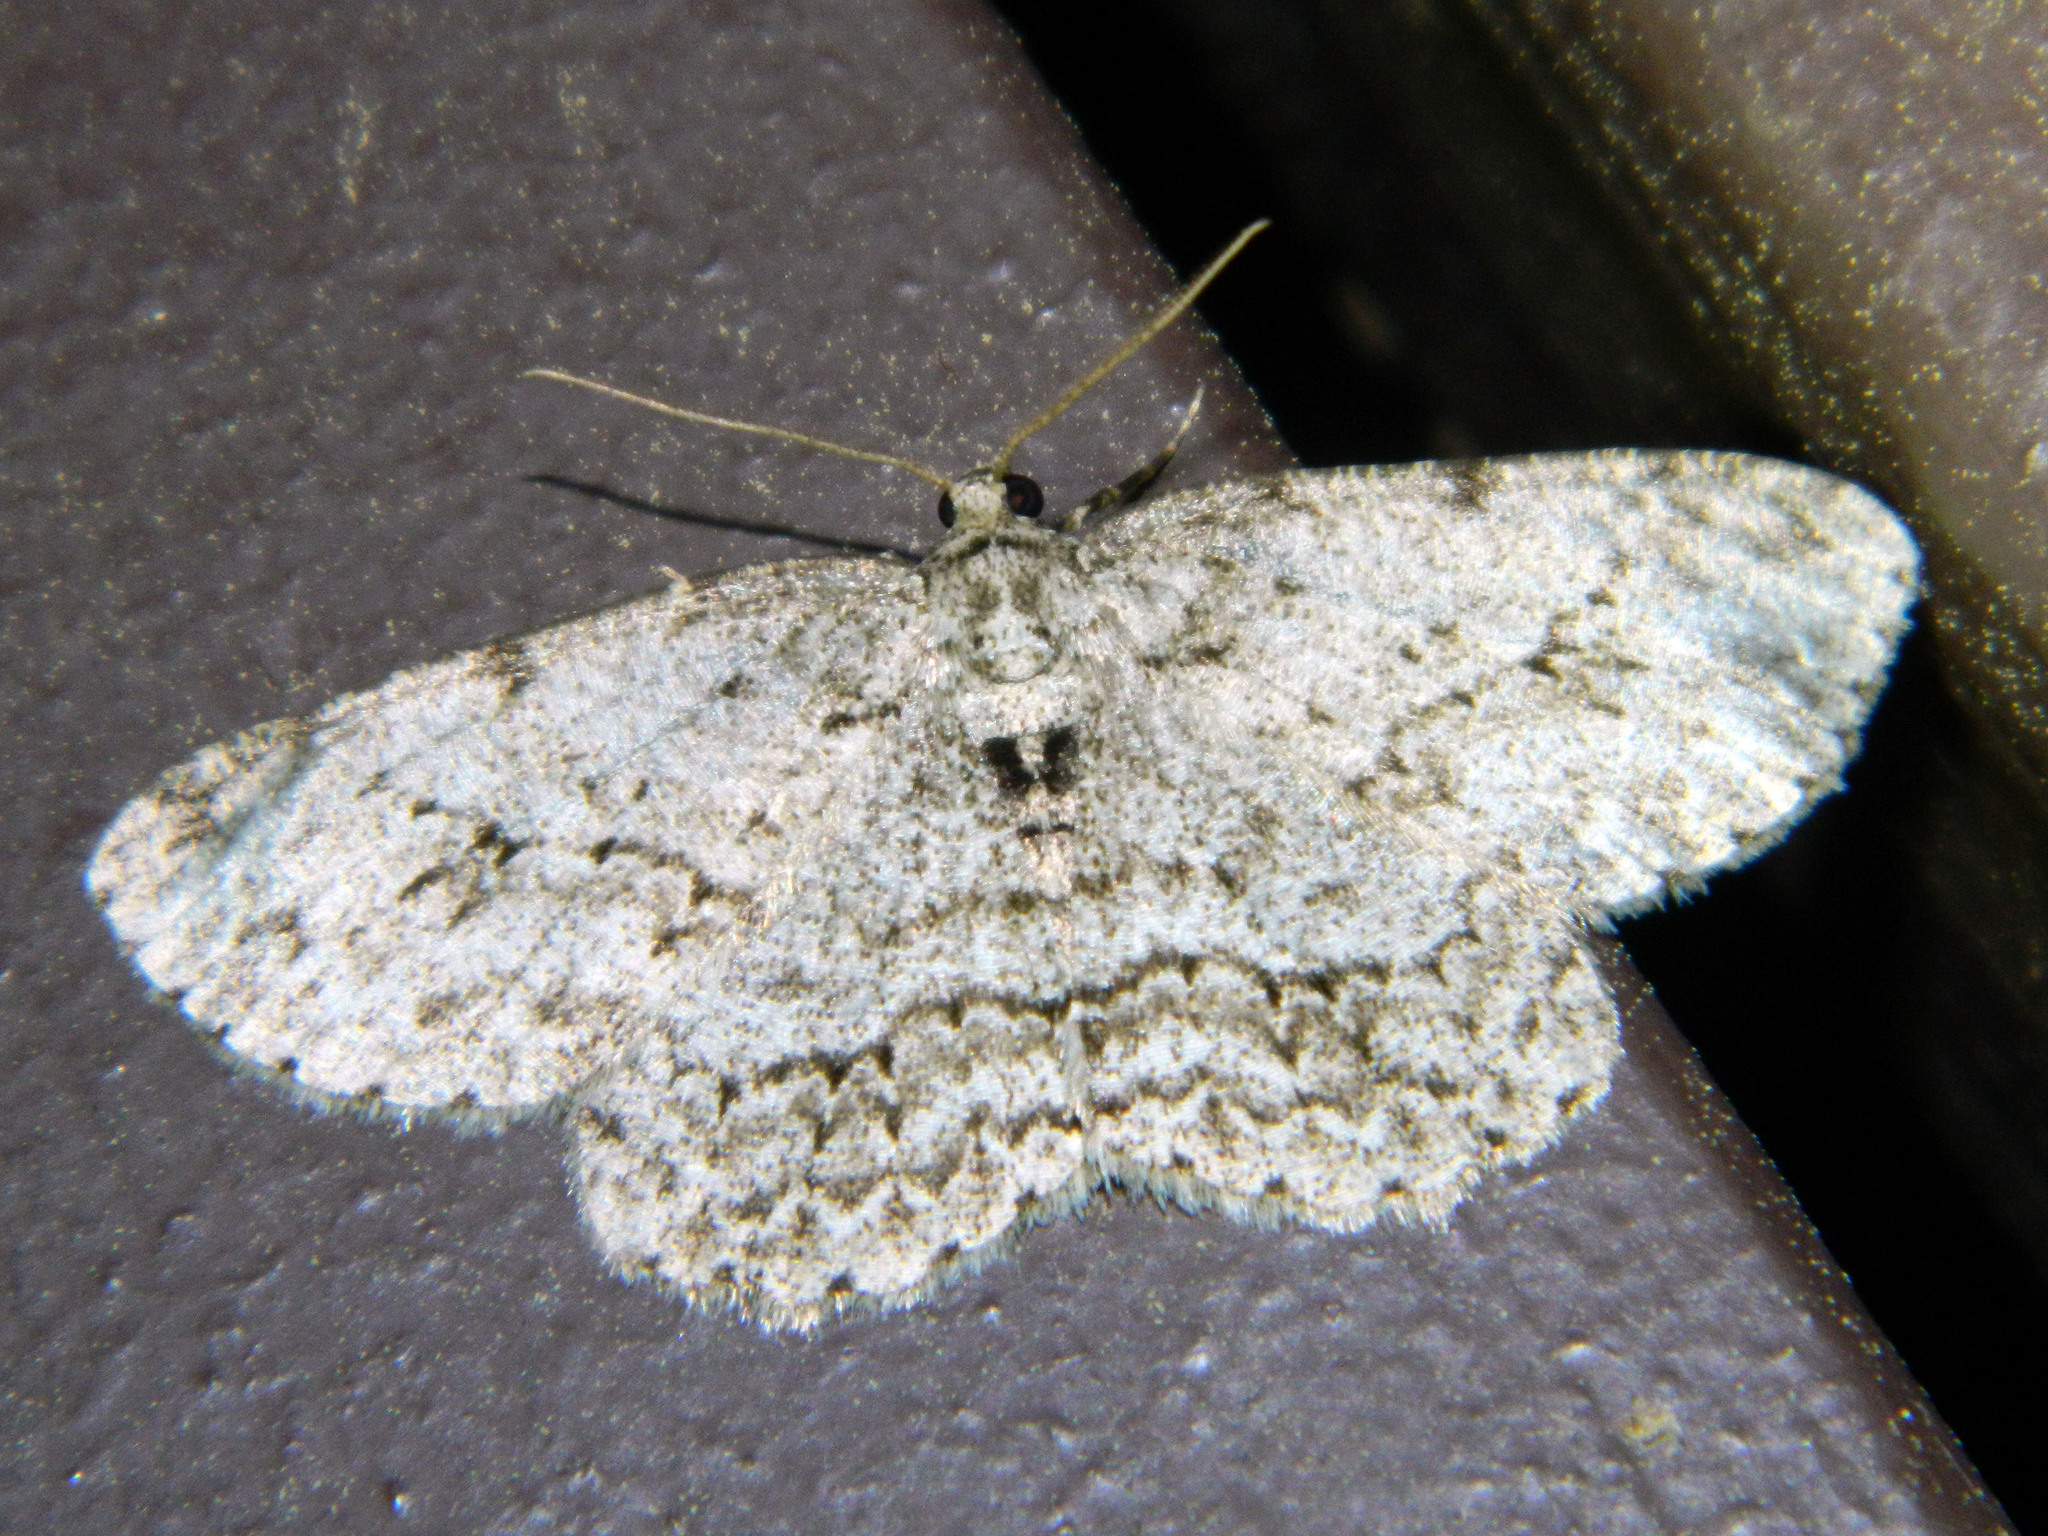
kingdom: Animalia
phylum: Arthropoda
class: Insecta
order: Lepidoptera
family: Geometridae
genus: Ectropis
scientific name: Ectropis crepuscularia
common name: Engrailed
